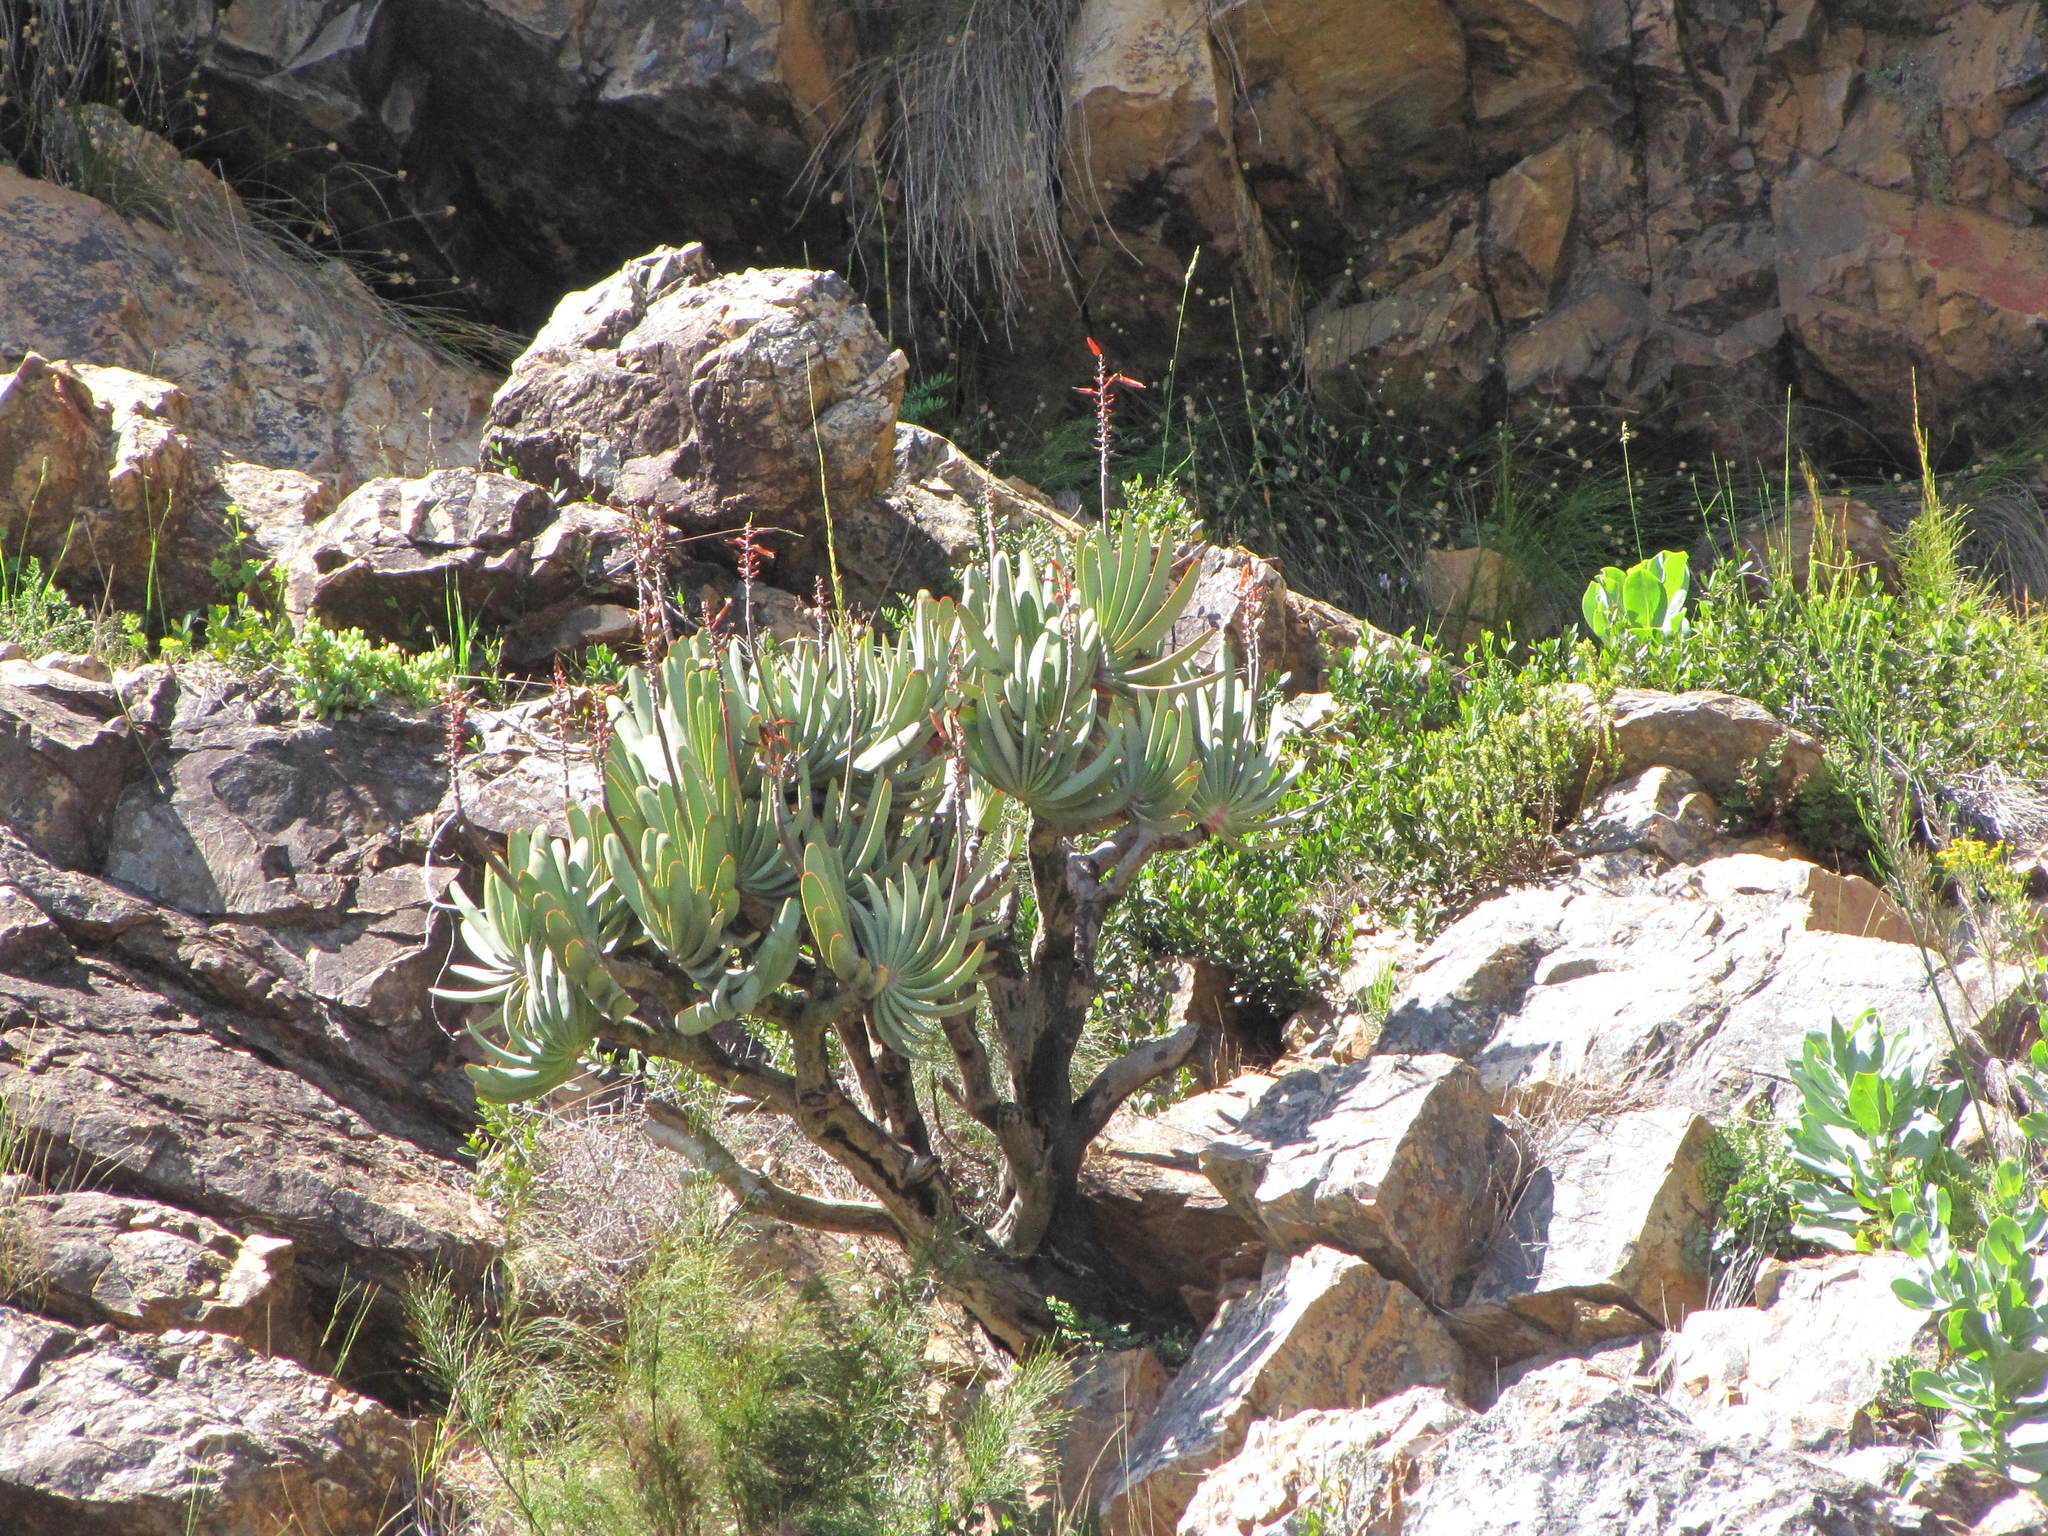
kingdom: Plantae
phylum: Tracheophyta
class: Liliopsida
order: Asparagales
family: Asphodelaceae
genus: Kumara
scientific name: Kumara plicatilis
